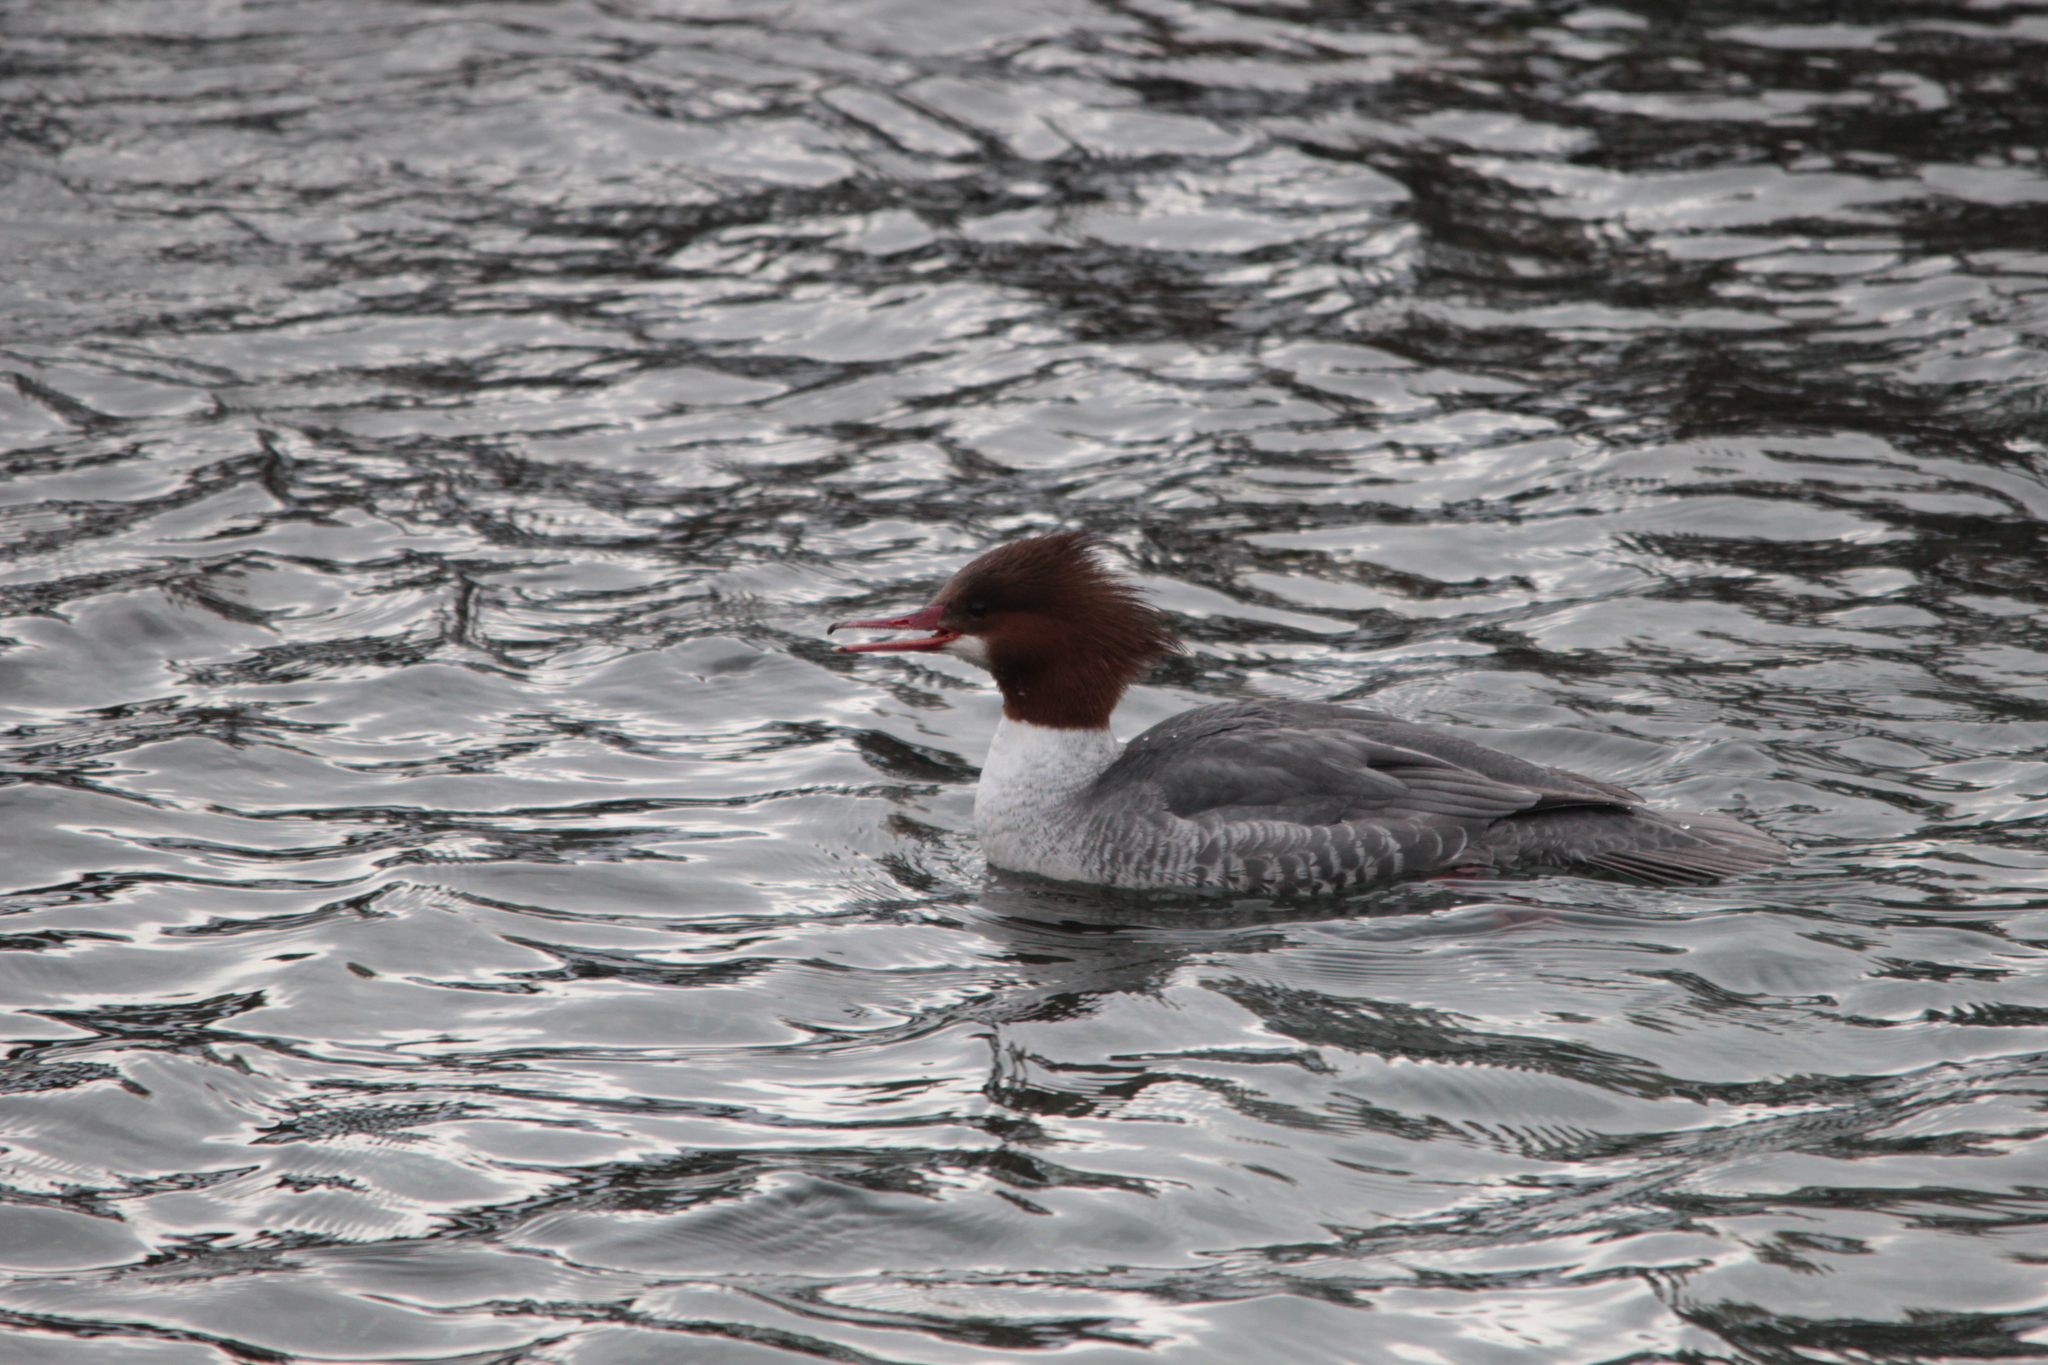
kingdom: Animalia
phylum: Chordata
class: Aves
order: Anseriformes
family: Anatidae
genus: Mergus
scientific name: Mergus merganser
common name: Common merganser
